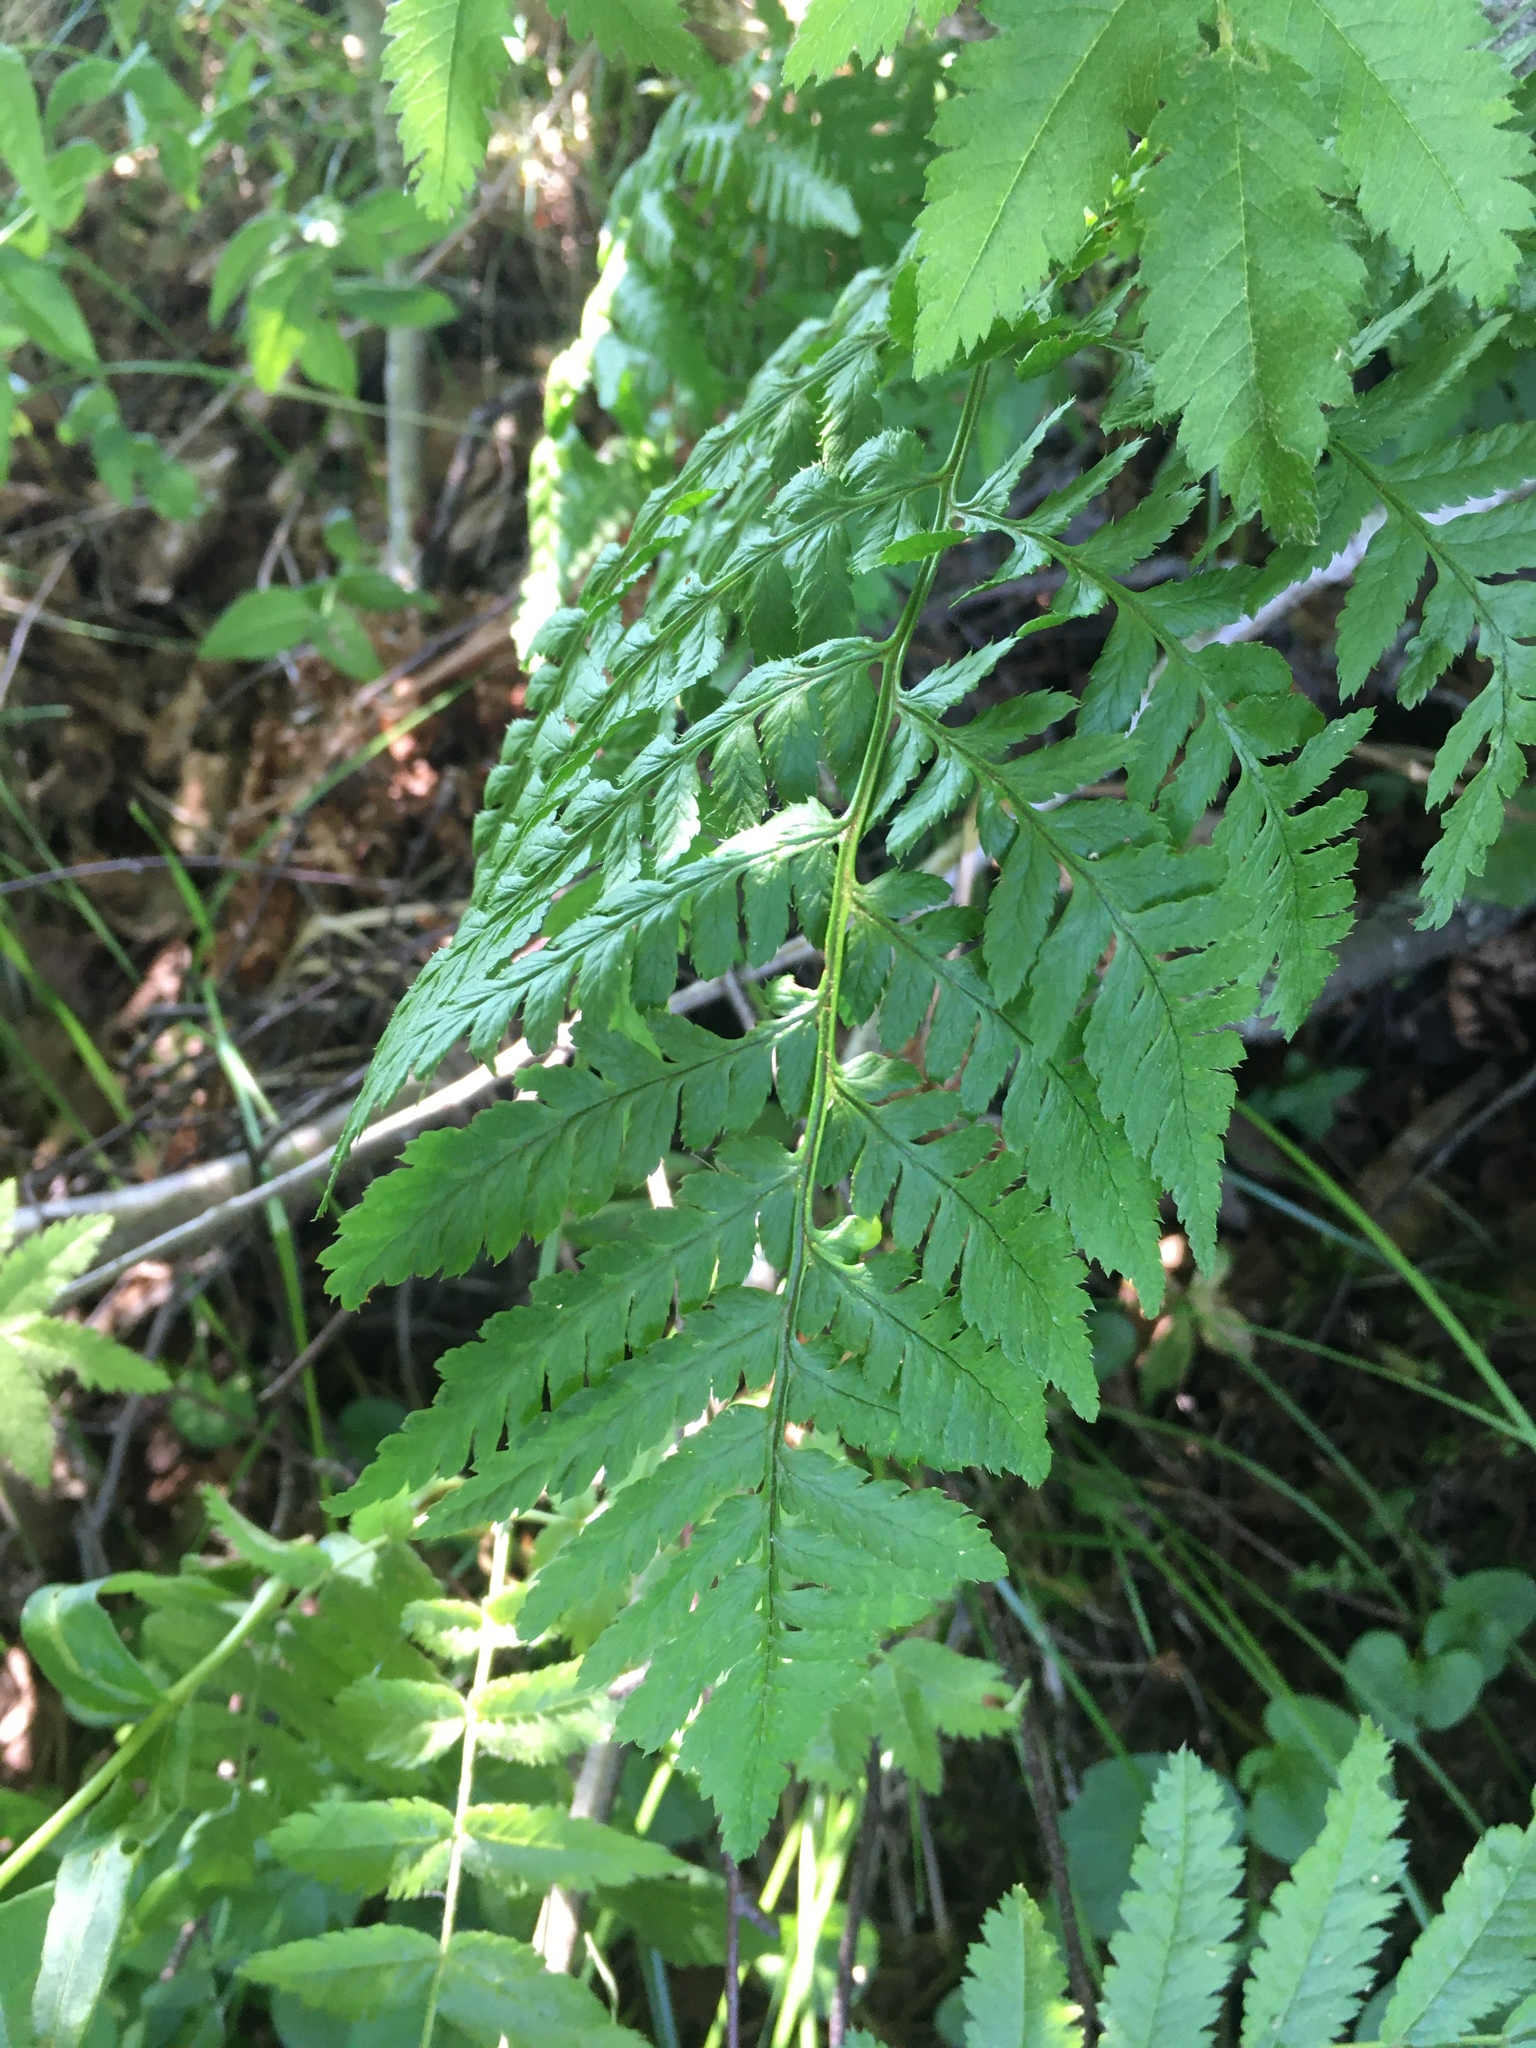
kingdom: Plantae
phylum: Tracheophyta
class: Polypodiopsida
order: Polypodiales
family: Dryopteridaceae
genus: Dryopteris
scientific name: Dryopteris carthusiana
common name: Narrow buckler-fern
